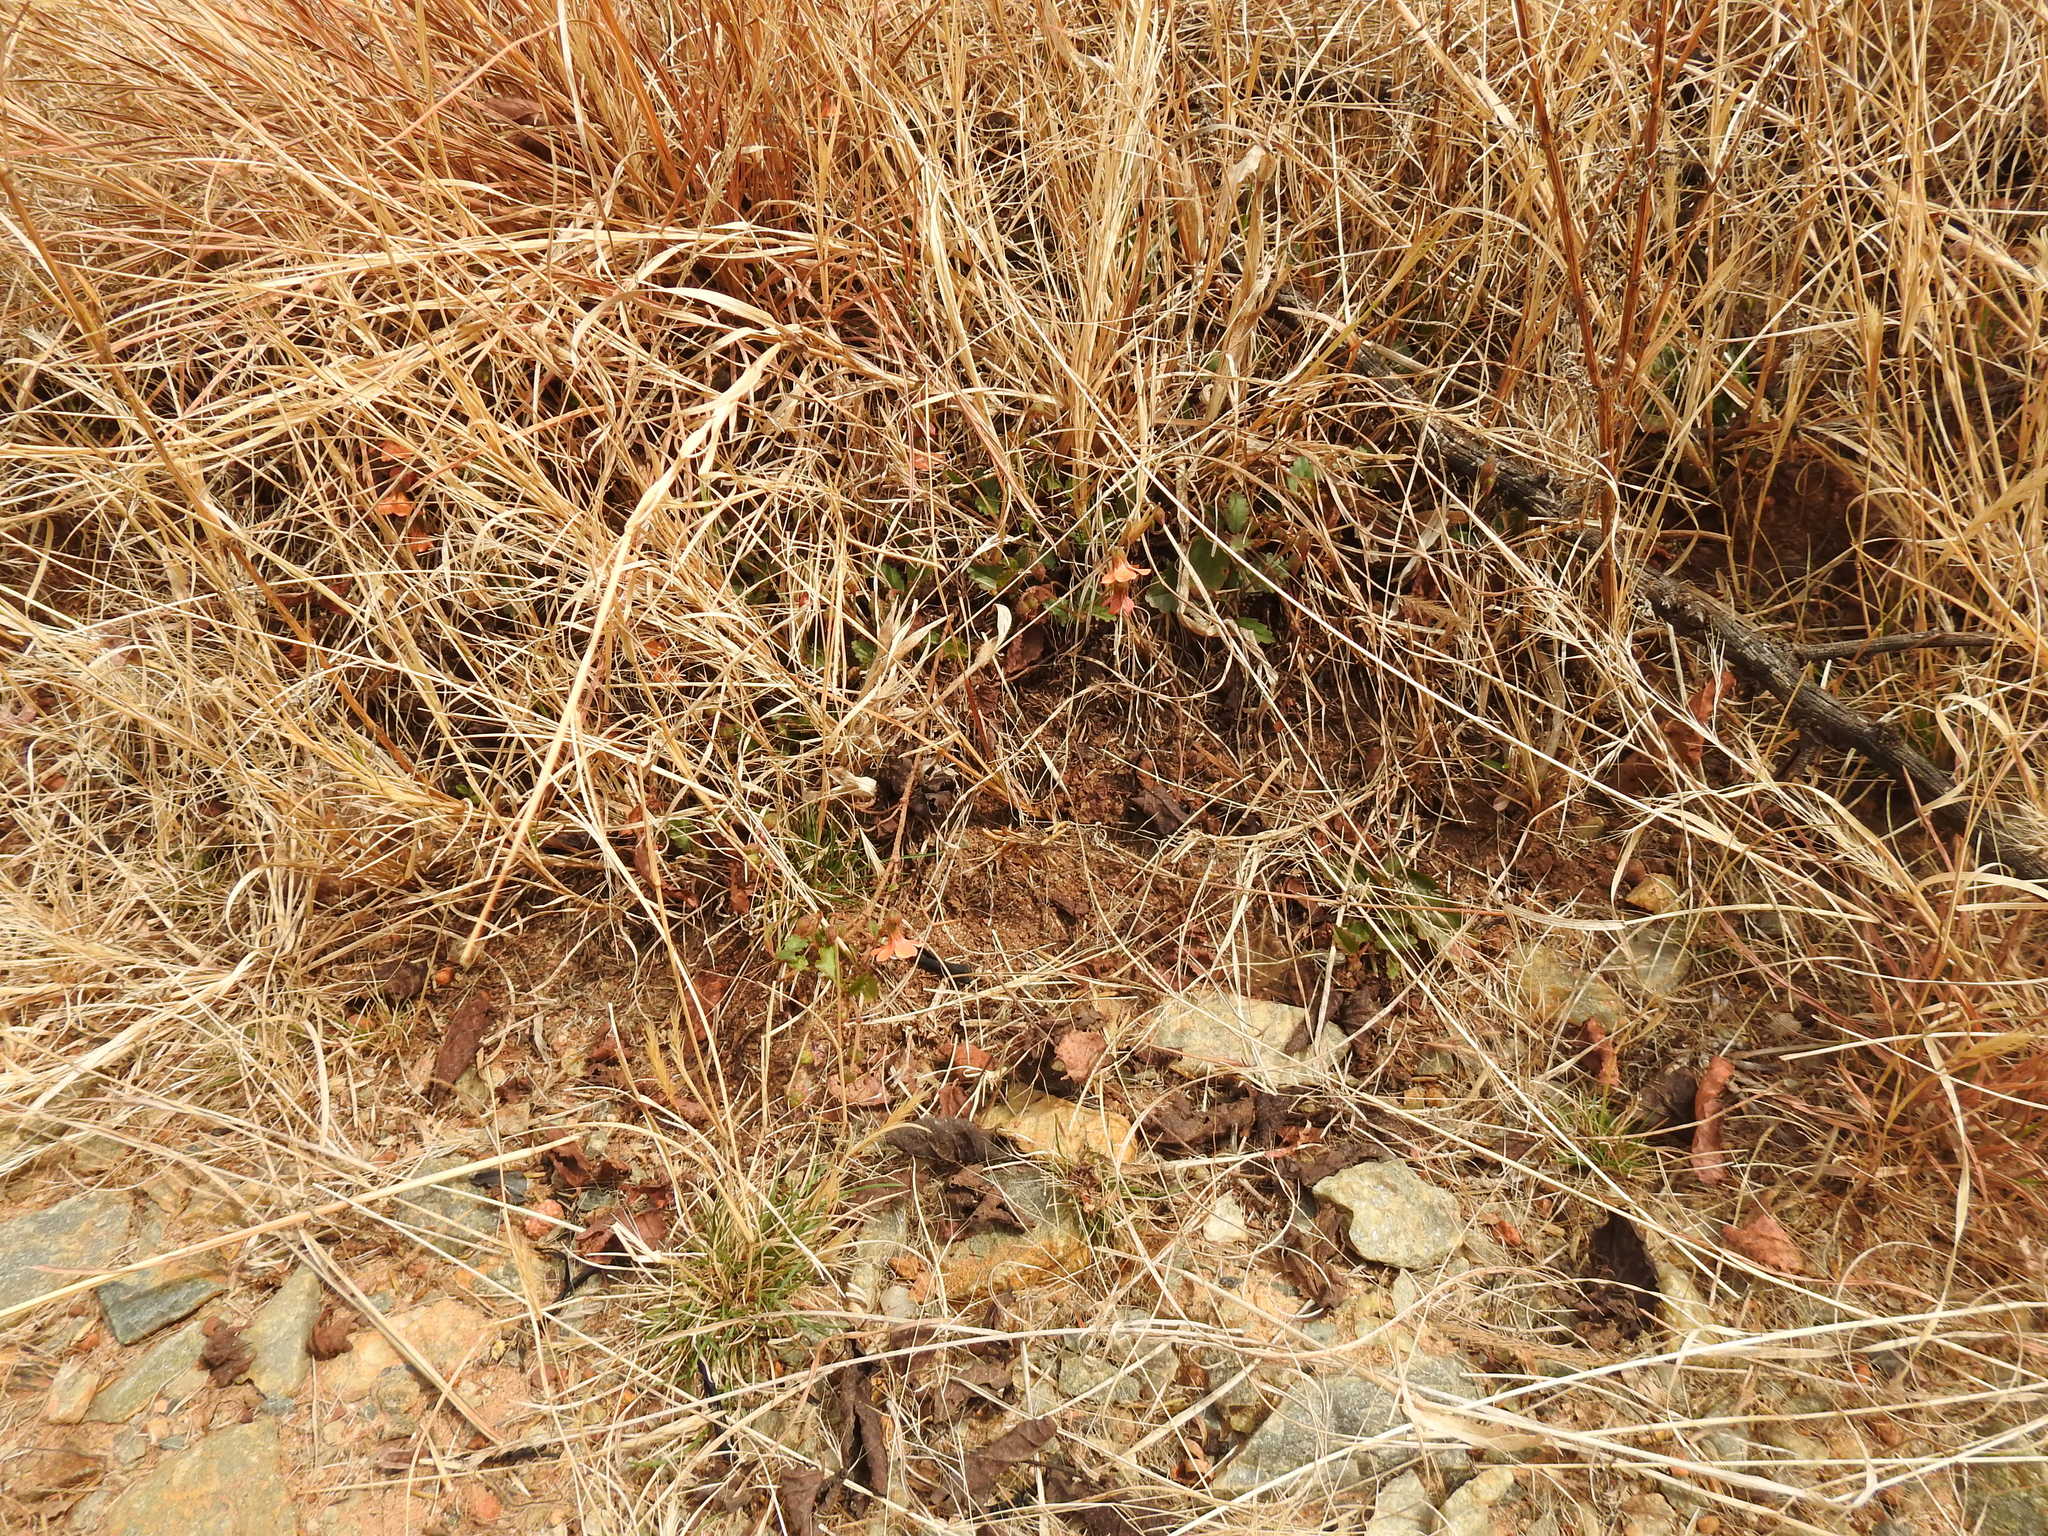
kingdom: Plantae
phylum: Tracheophyta
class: Magnoliopsida
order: Malvales
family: Malvaceae
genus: Hermannia
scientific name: Hermannia depressa
